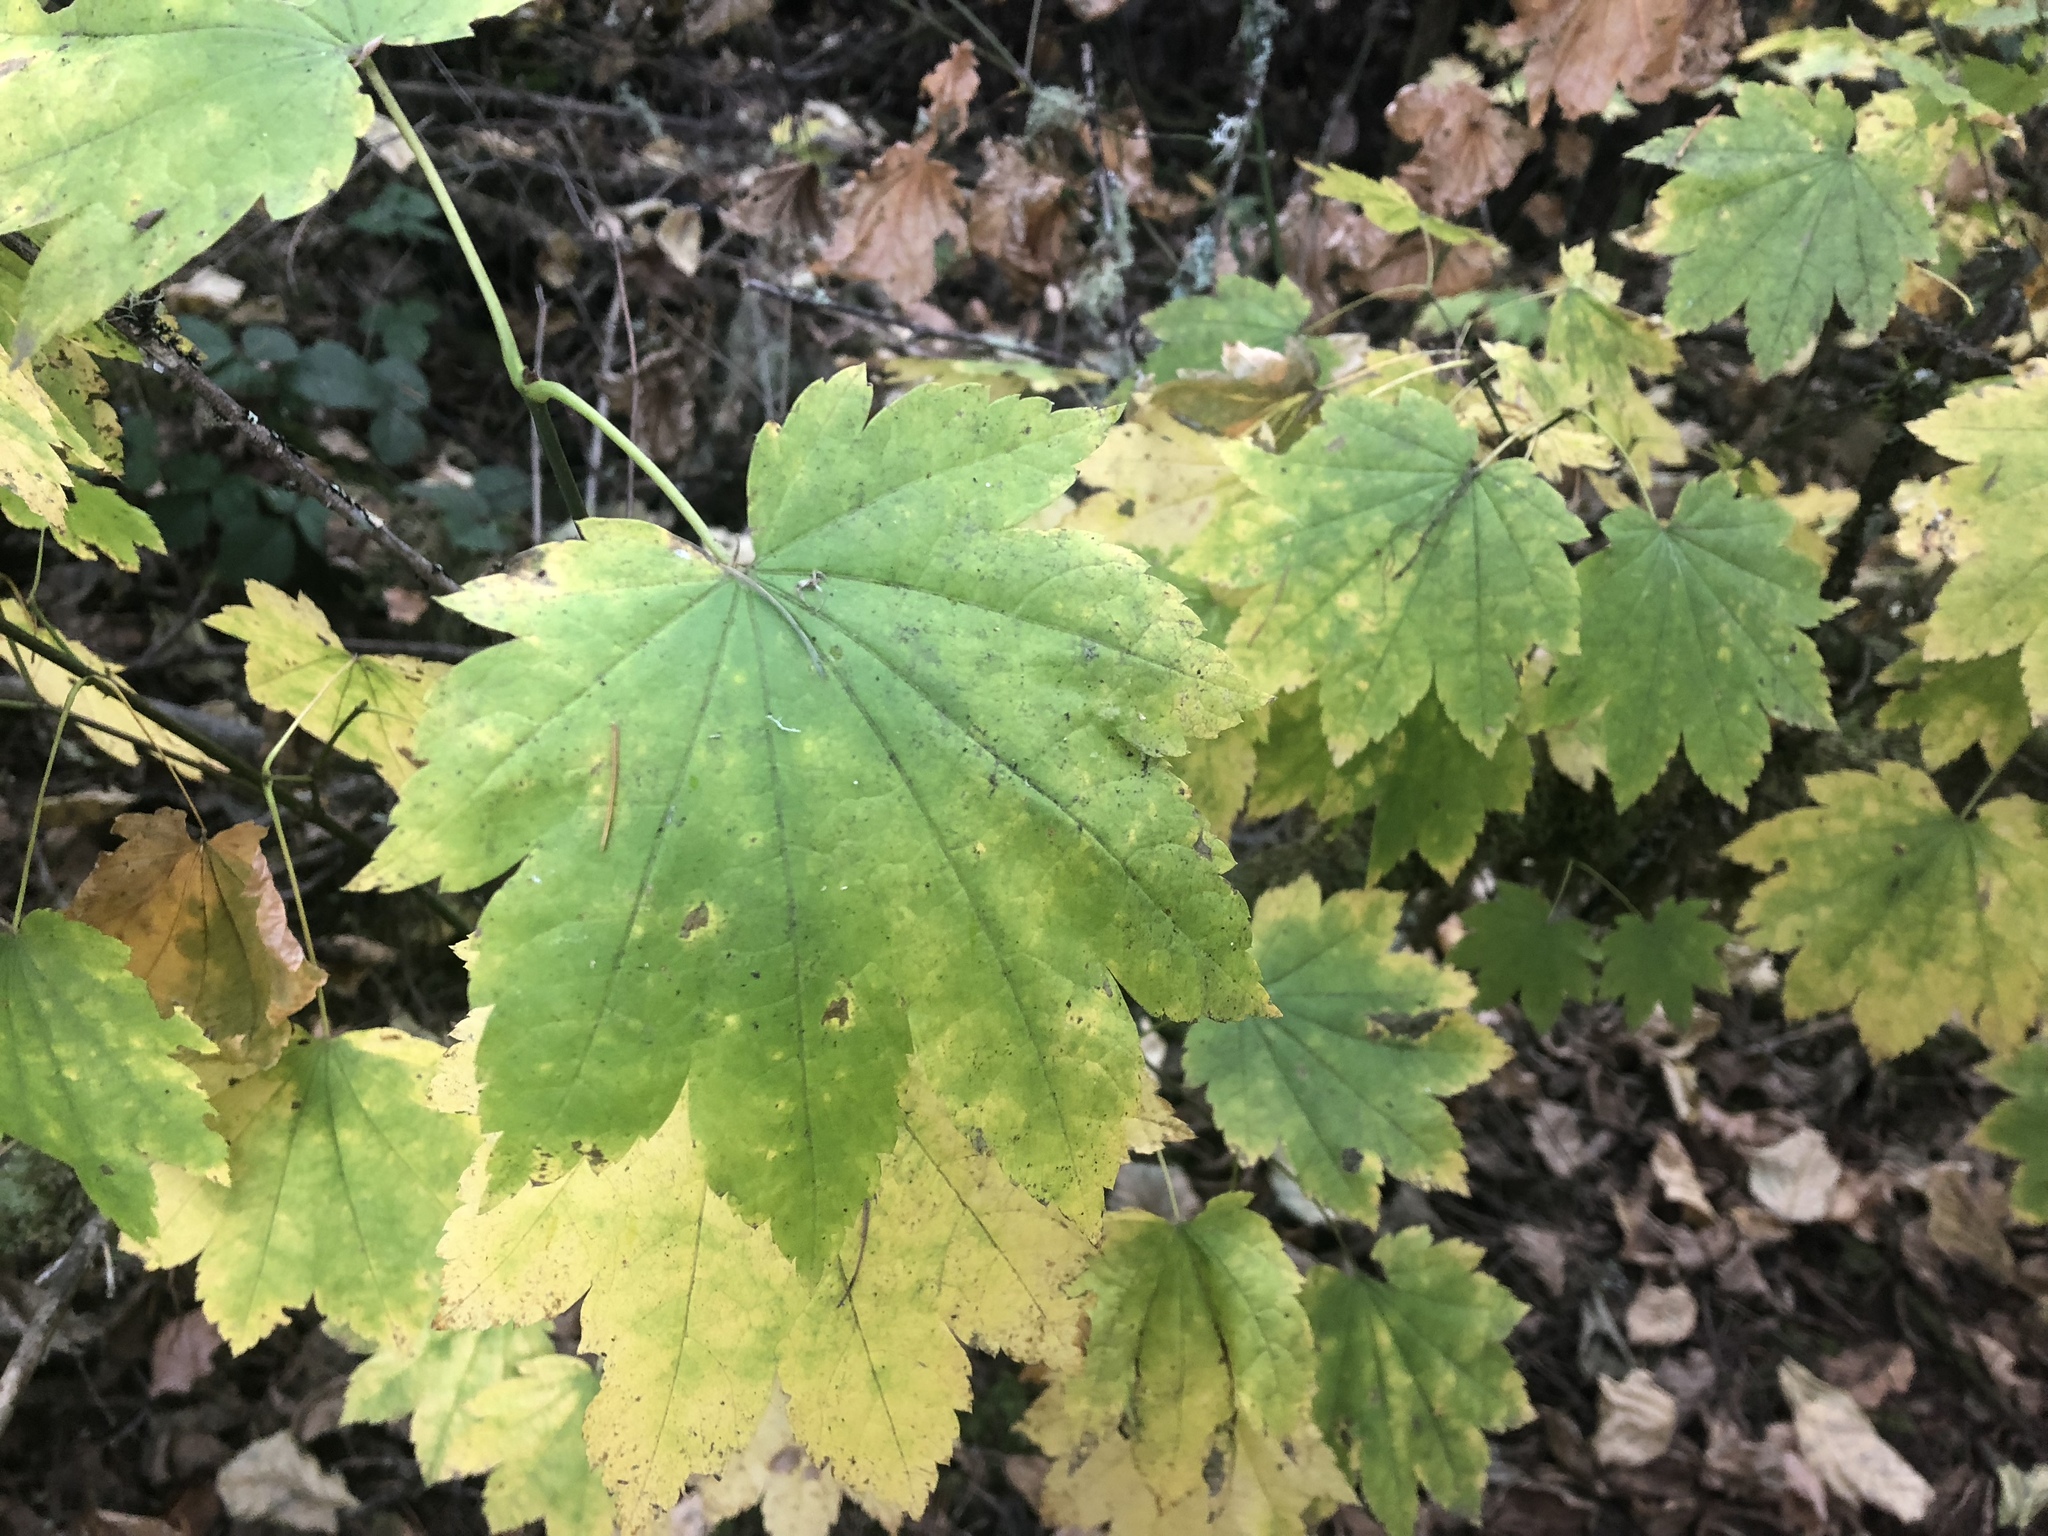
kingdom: Plantae
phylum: Tracheophyta
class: Magnoliopsida
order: Sapindales
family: Sapindaceae
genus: Acer
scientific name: Acer circinatum
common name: Vine maple
